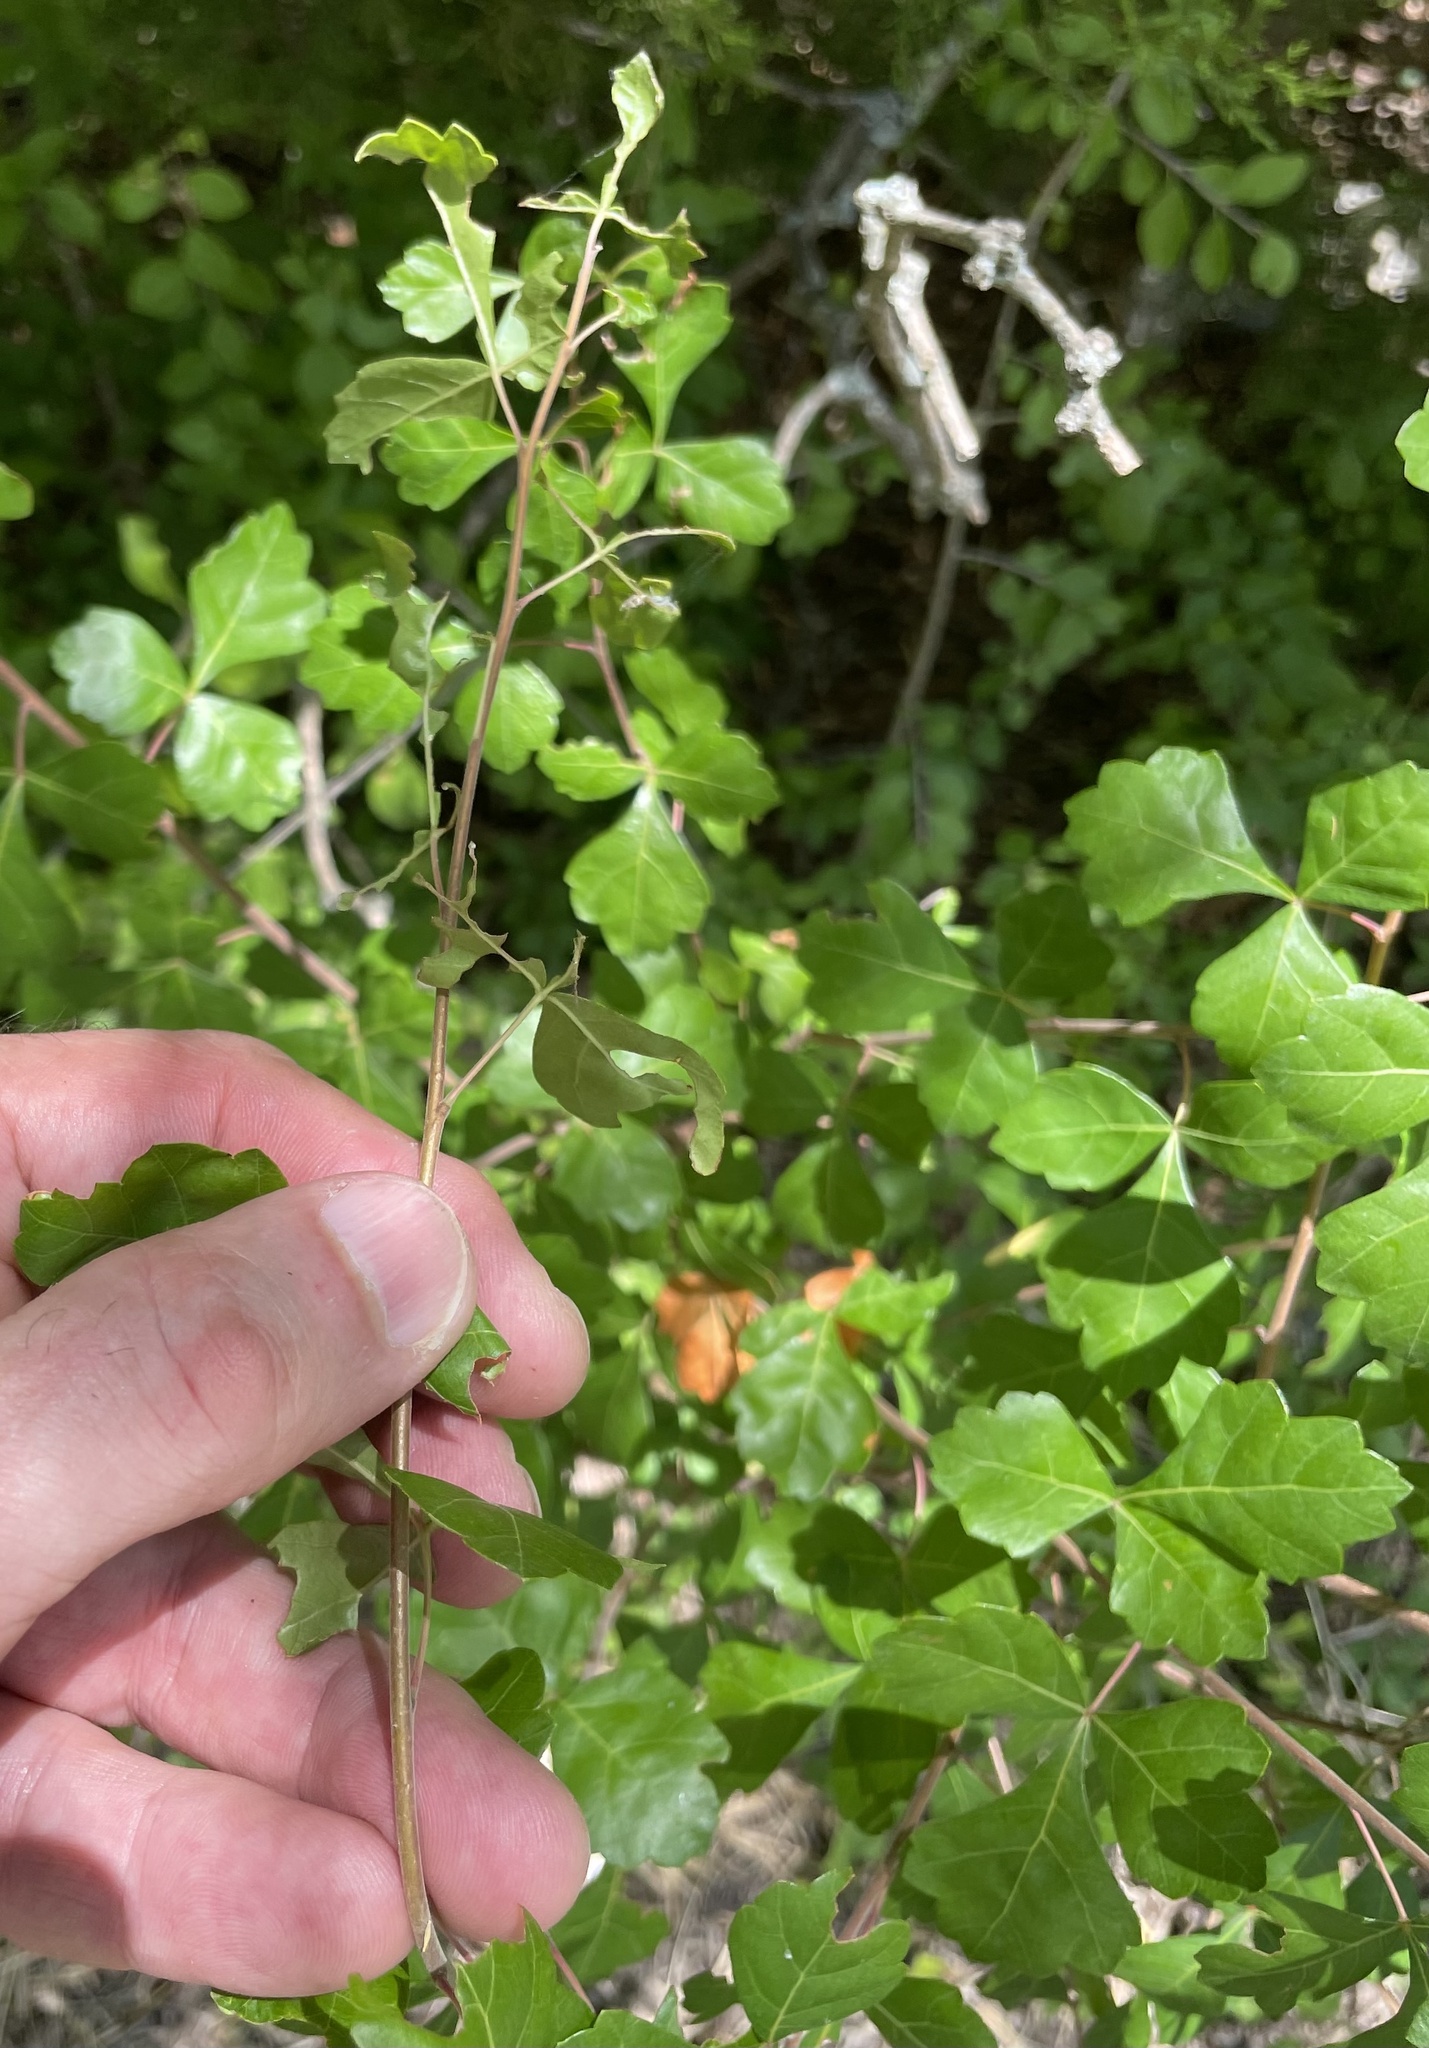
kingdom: Plantae
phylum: Tracheophyta
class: Magnoliopsida
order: Sapindales
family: Anacardiaceae
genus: Rhus
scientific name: Rhus aromatica
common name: Aromatic sumac
